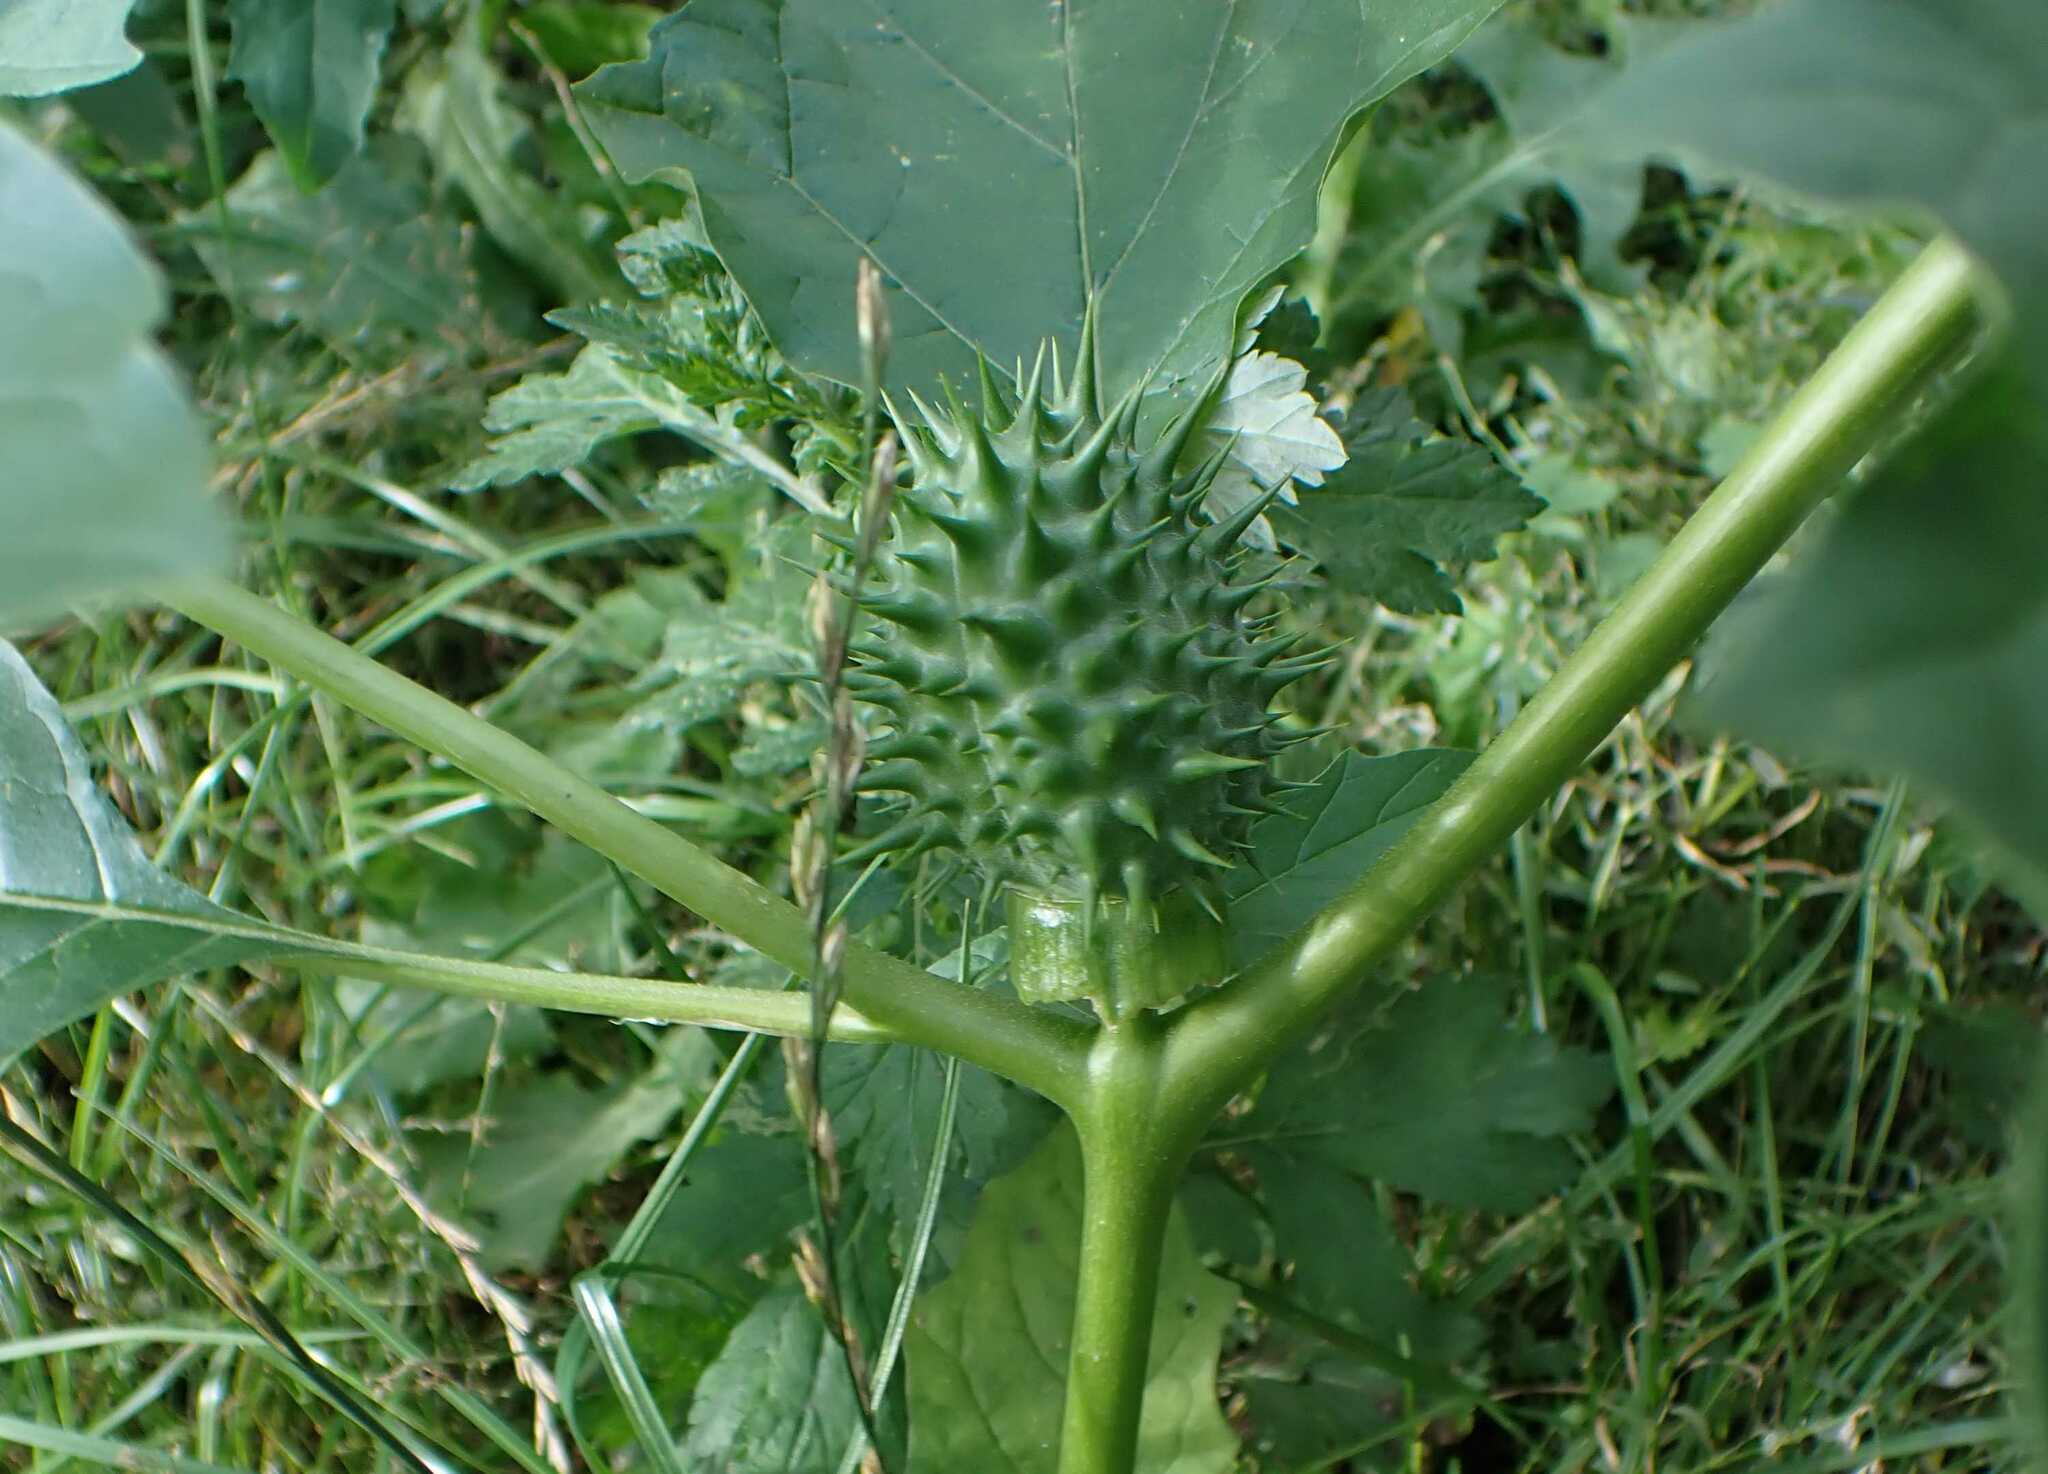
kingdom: Plantae
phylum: Tracheophyta
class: Magnoliopsida
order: Solanales
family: Solanaceae
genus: Datura
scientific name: Datura stramonium
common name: Thorn-apple
